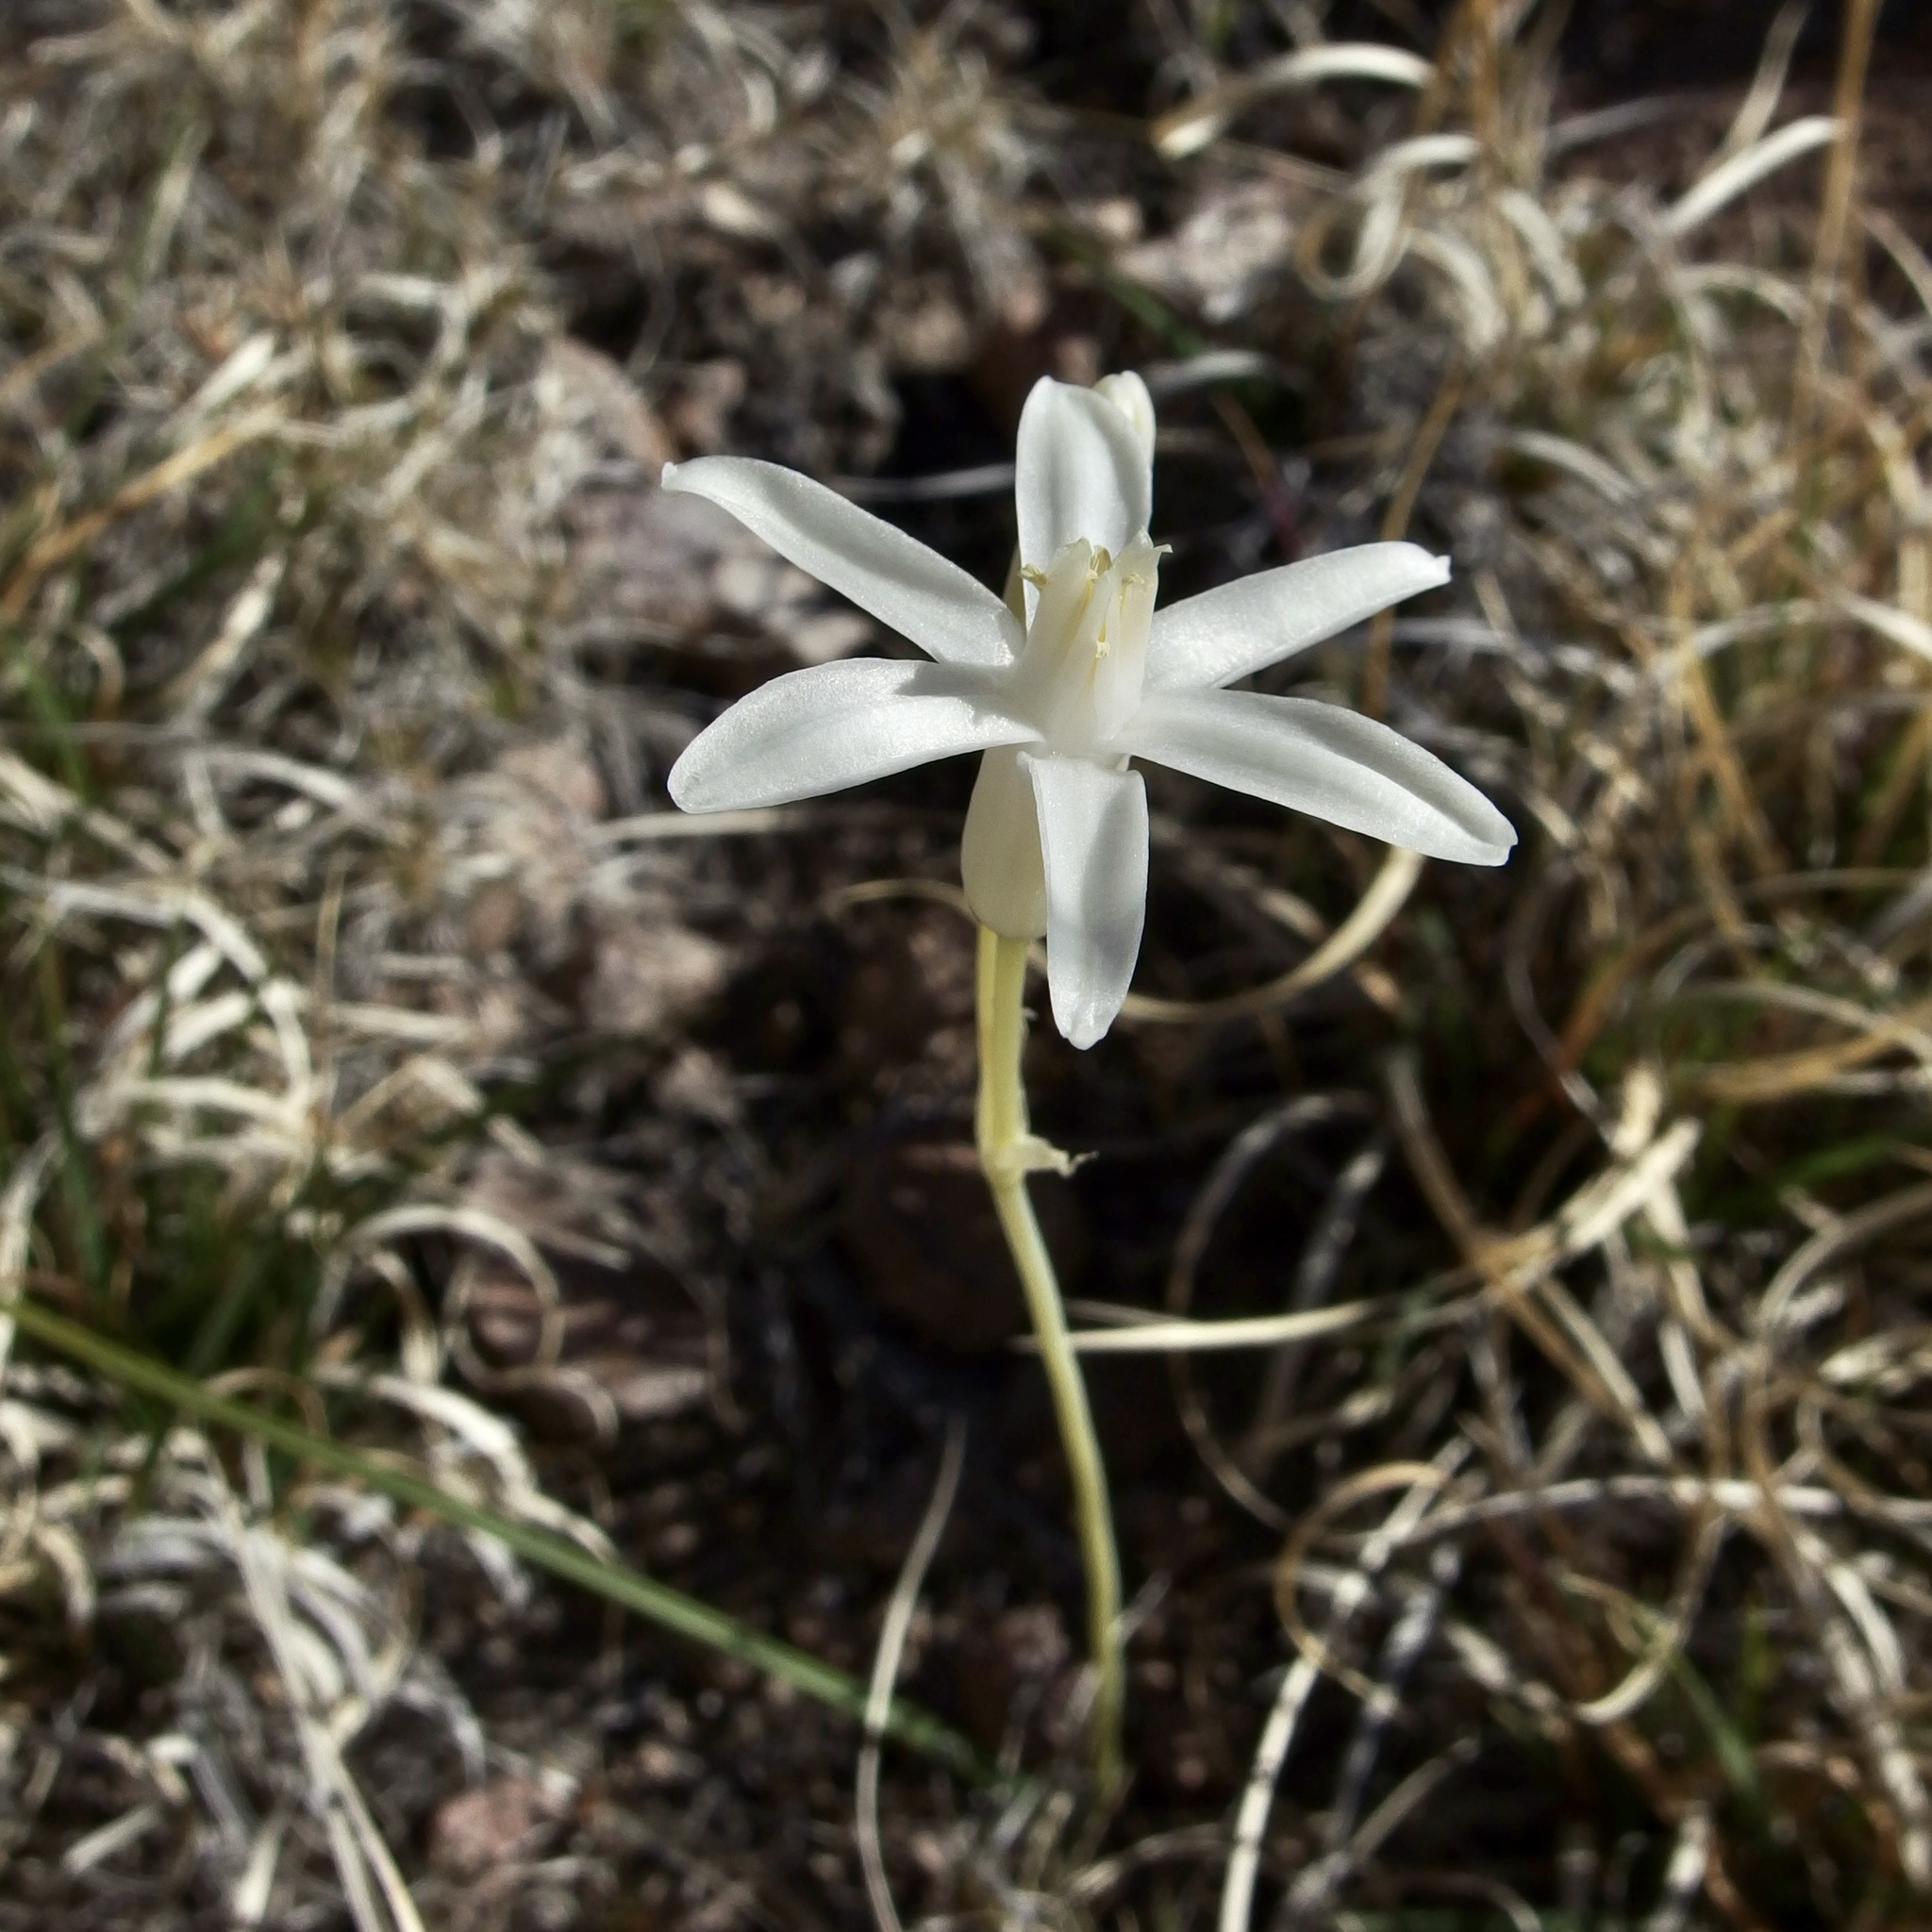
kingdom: Plantae
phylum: Tracheophyta
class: Liliopsida
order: Asparagales
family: Asparagaceae
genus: Dipterostemon
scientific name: Dipterostemon capitatus
